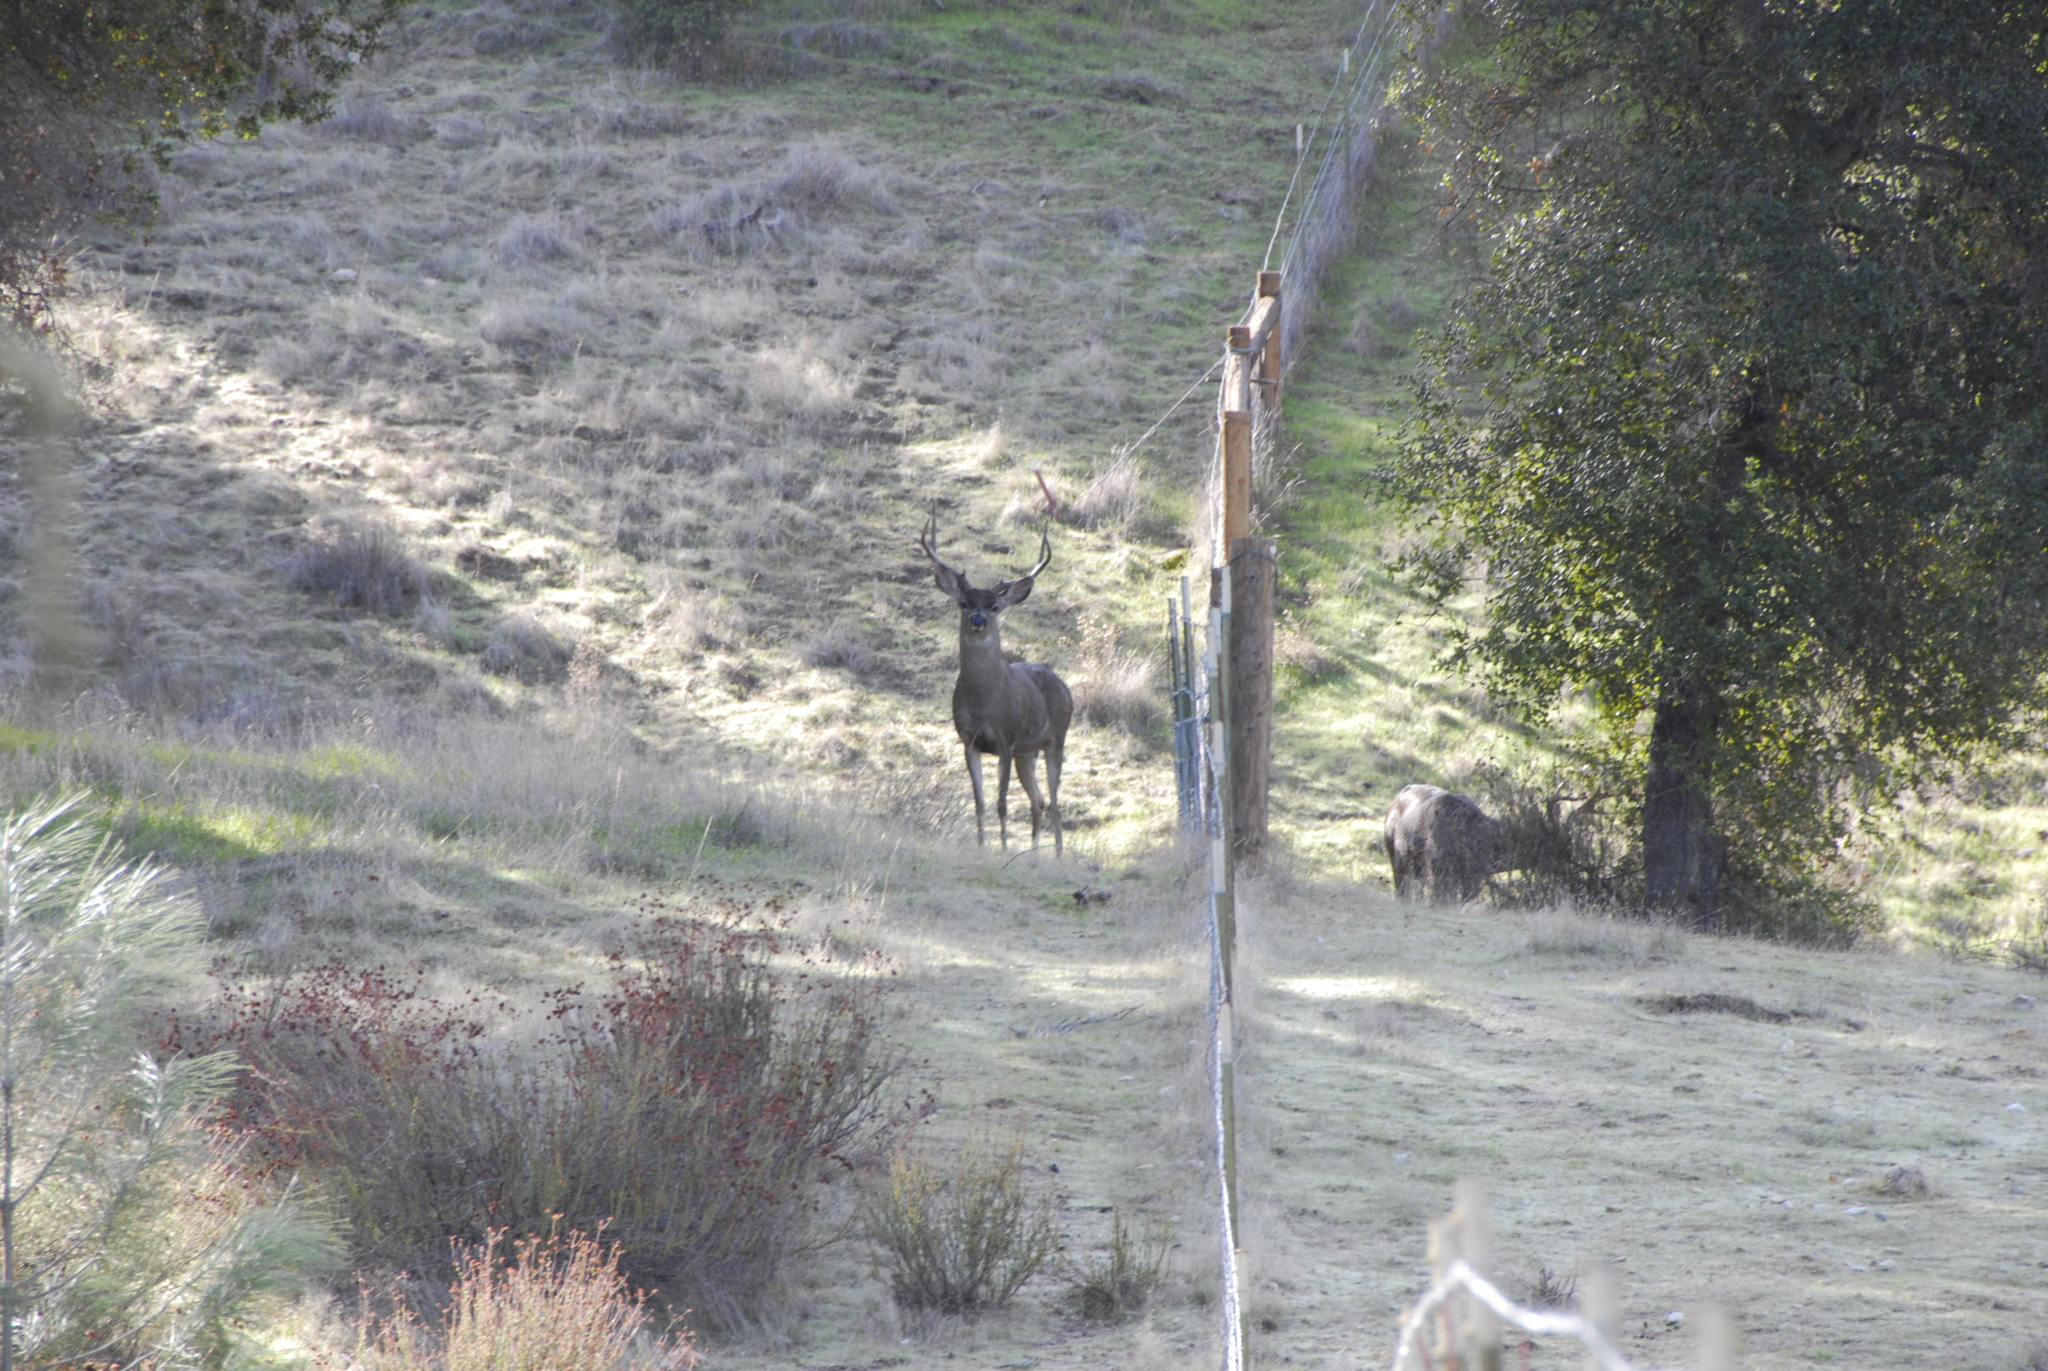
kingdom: Animalia
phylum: Chordata
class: Mammalia
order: Artiodactyla
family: Cervidae
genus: Odocoileus
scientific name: Odocoileus hemionus
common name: Mule deer
